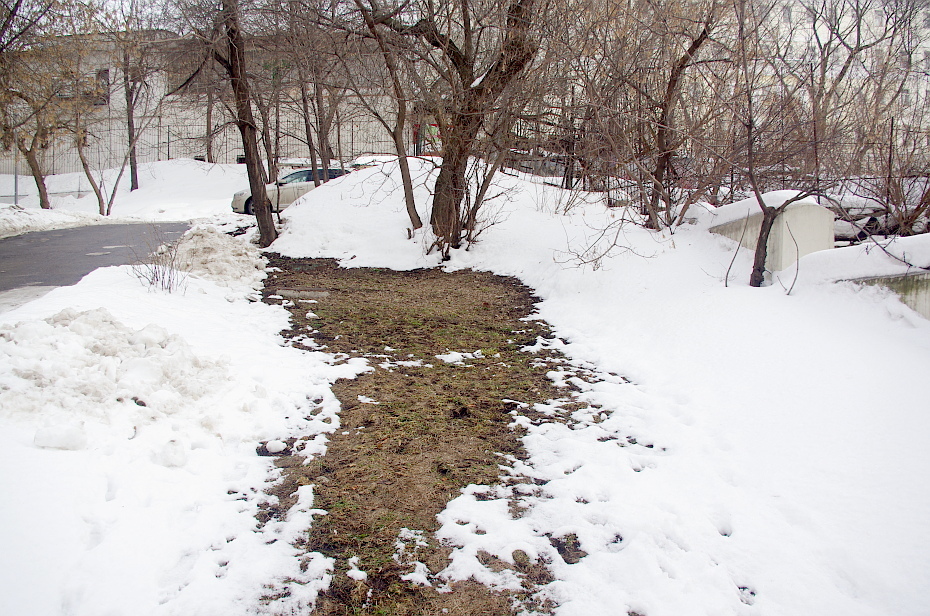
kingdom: Plantae
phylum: Tracheophyta
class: Magnoliopsida
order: Ranunculales
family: Papaveraceae
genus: Chelidonium
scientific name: Chelidonium majus
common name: Greater celandine
